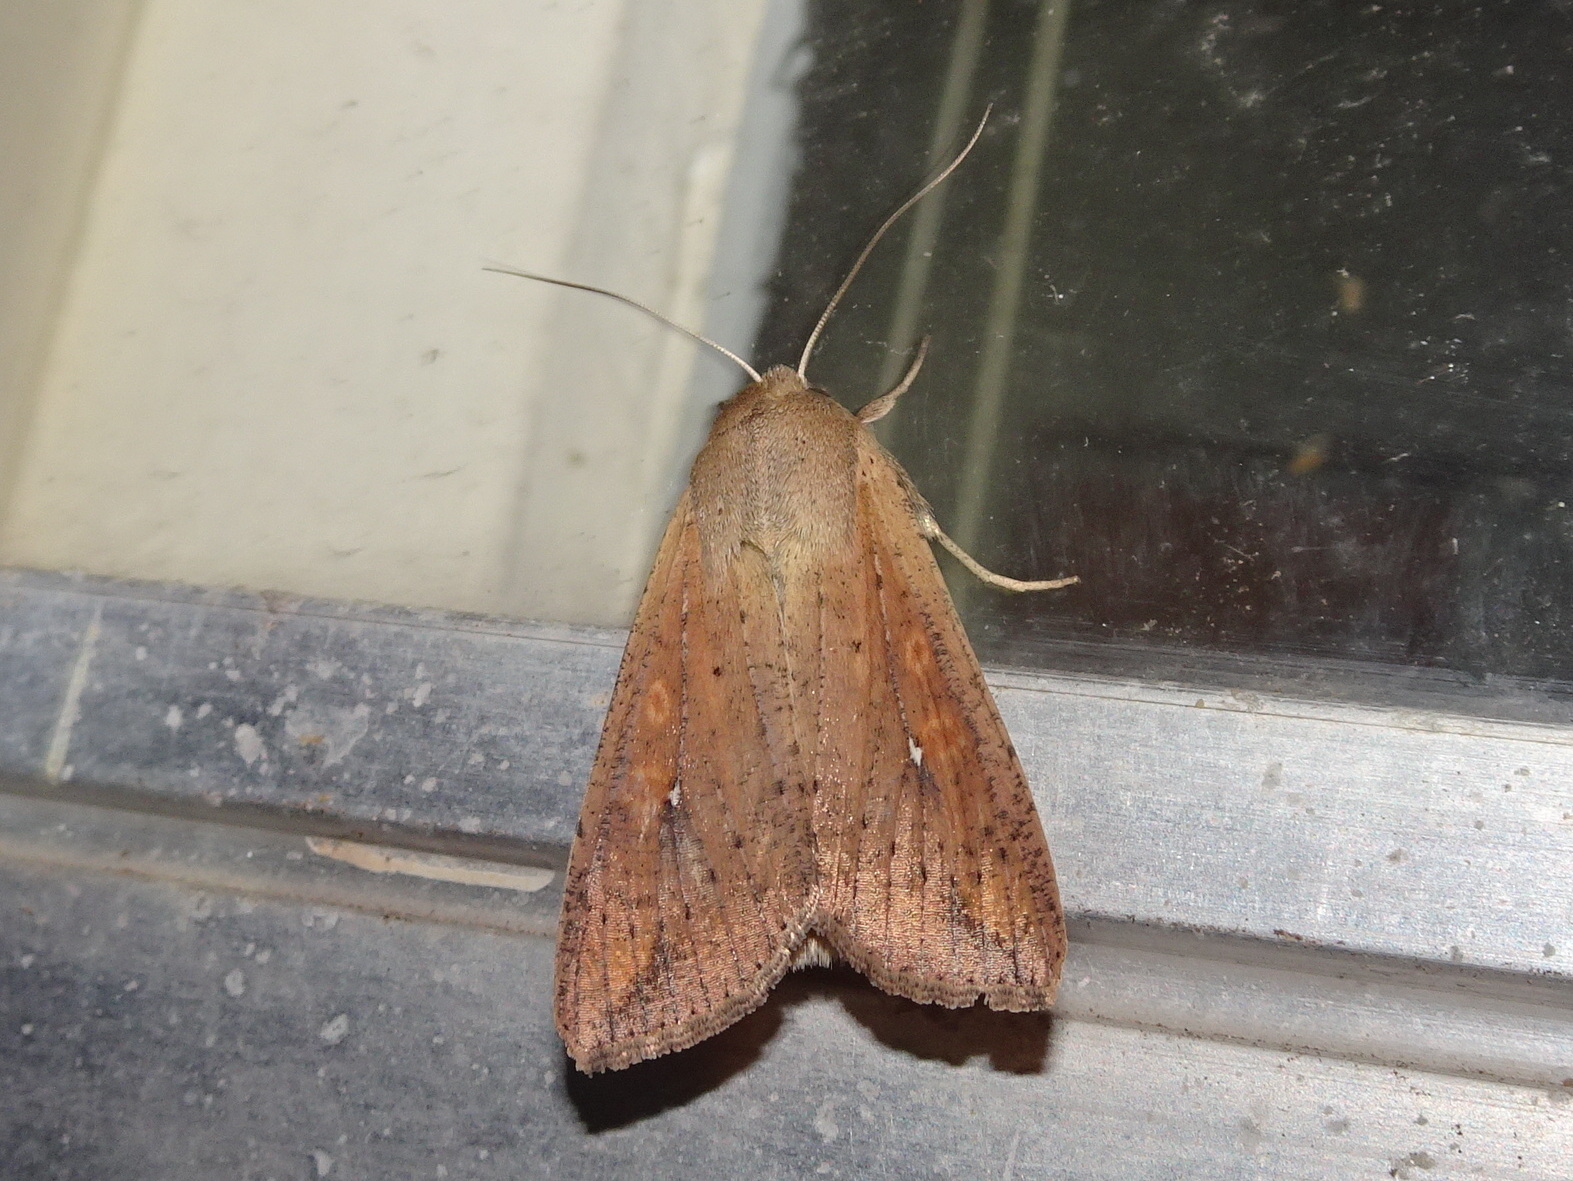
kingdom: Animalia
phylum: Arthropoda
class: Insecta
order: Lepidoptera
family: Noctuidae
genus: Mythimna
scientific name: Mythimna unipuncta
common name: White-speck
